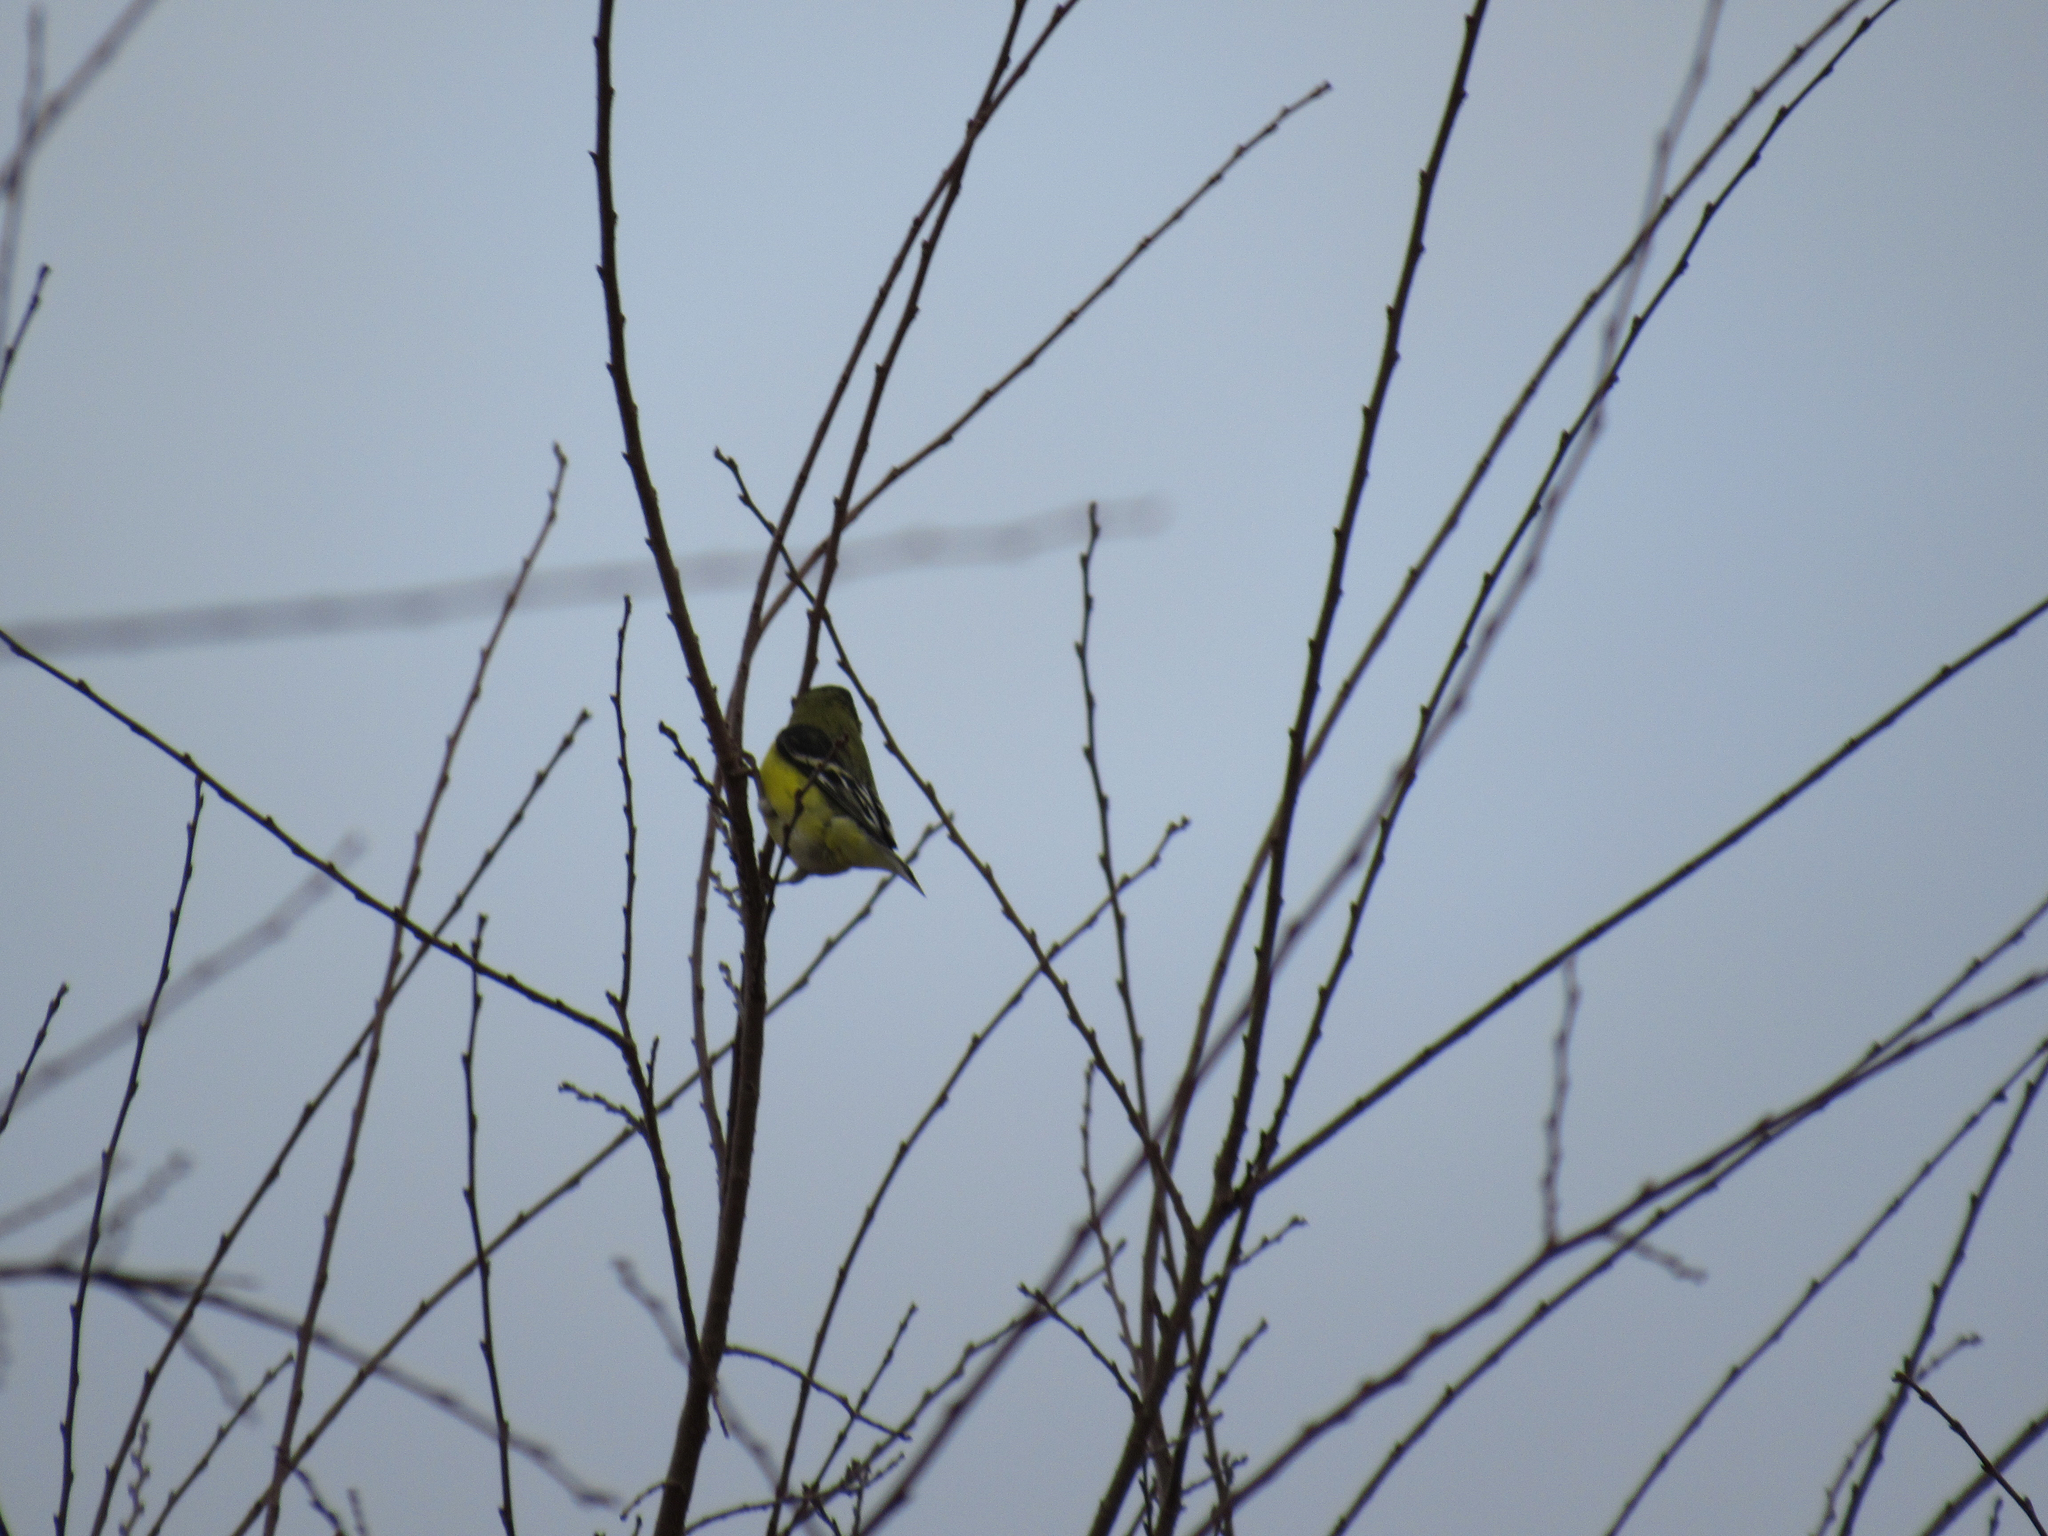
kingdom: Animalia
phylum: Chordata
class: Aves
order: Passeriformes
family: Fringillidae
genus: Spinus
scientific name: Spinus psaltria
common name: Lesser goldfinch
